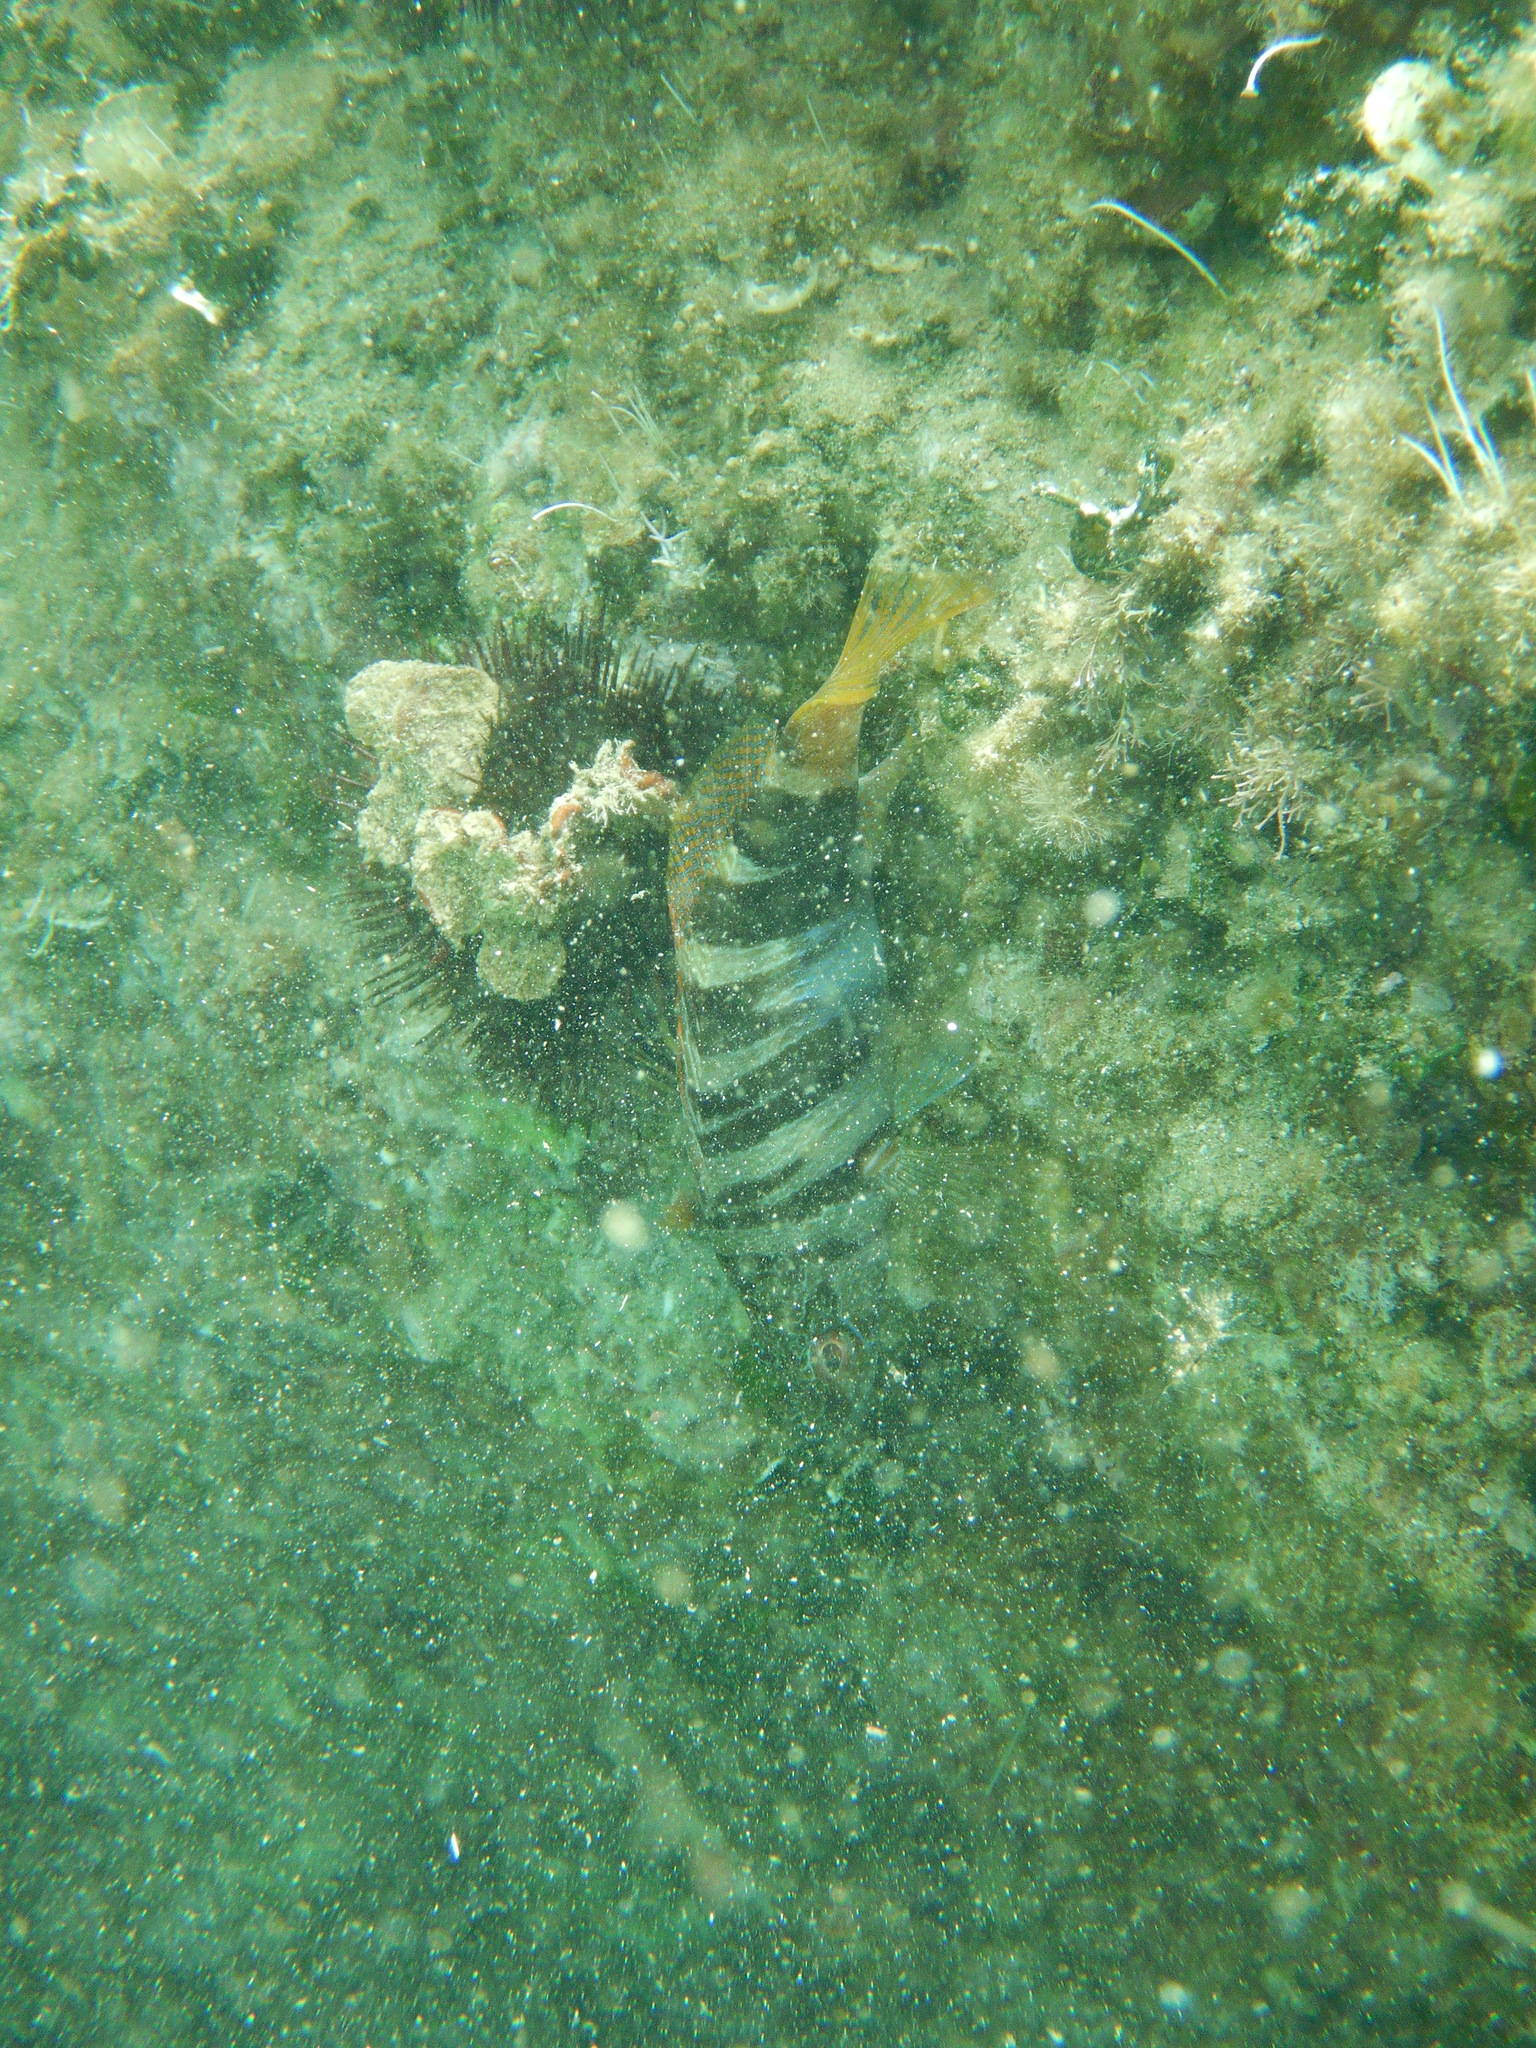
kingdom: Animalia
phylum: Chordata
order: Perciformes
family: Serranidae
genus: Serranus
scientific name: Serranus scriba
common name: Painted comber
